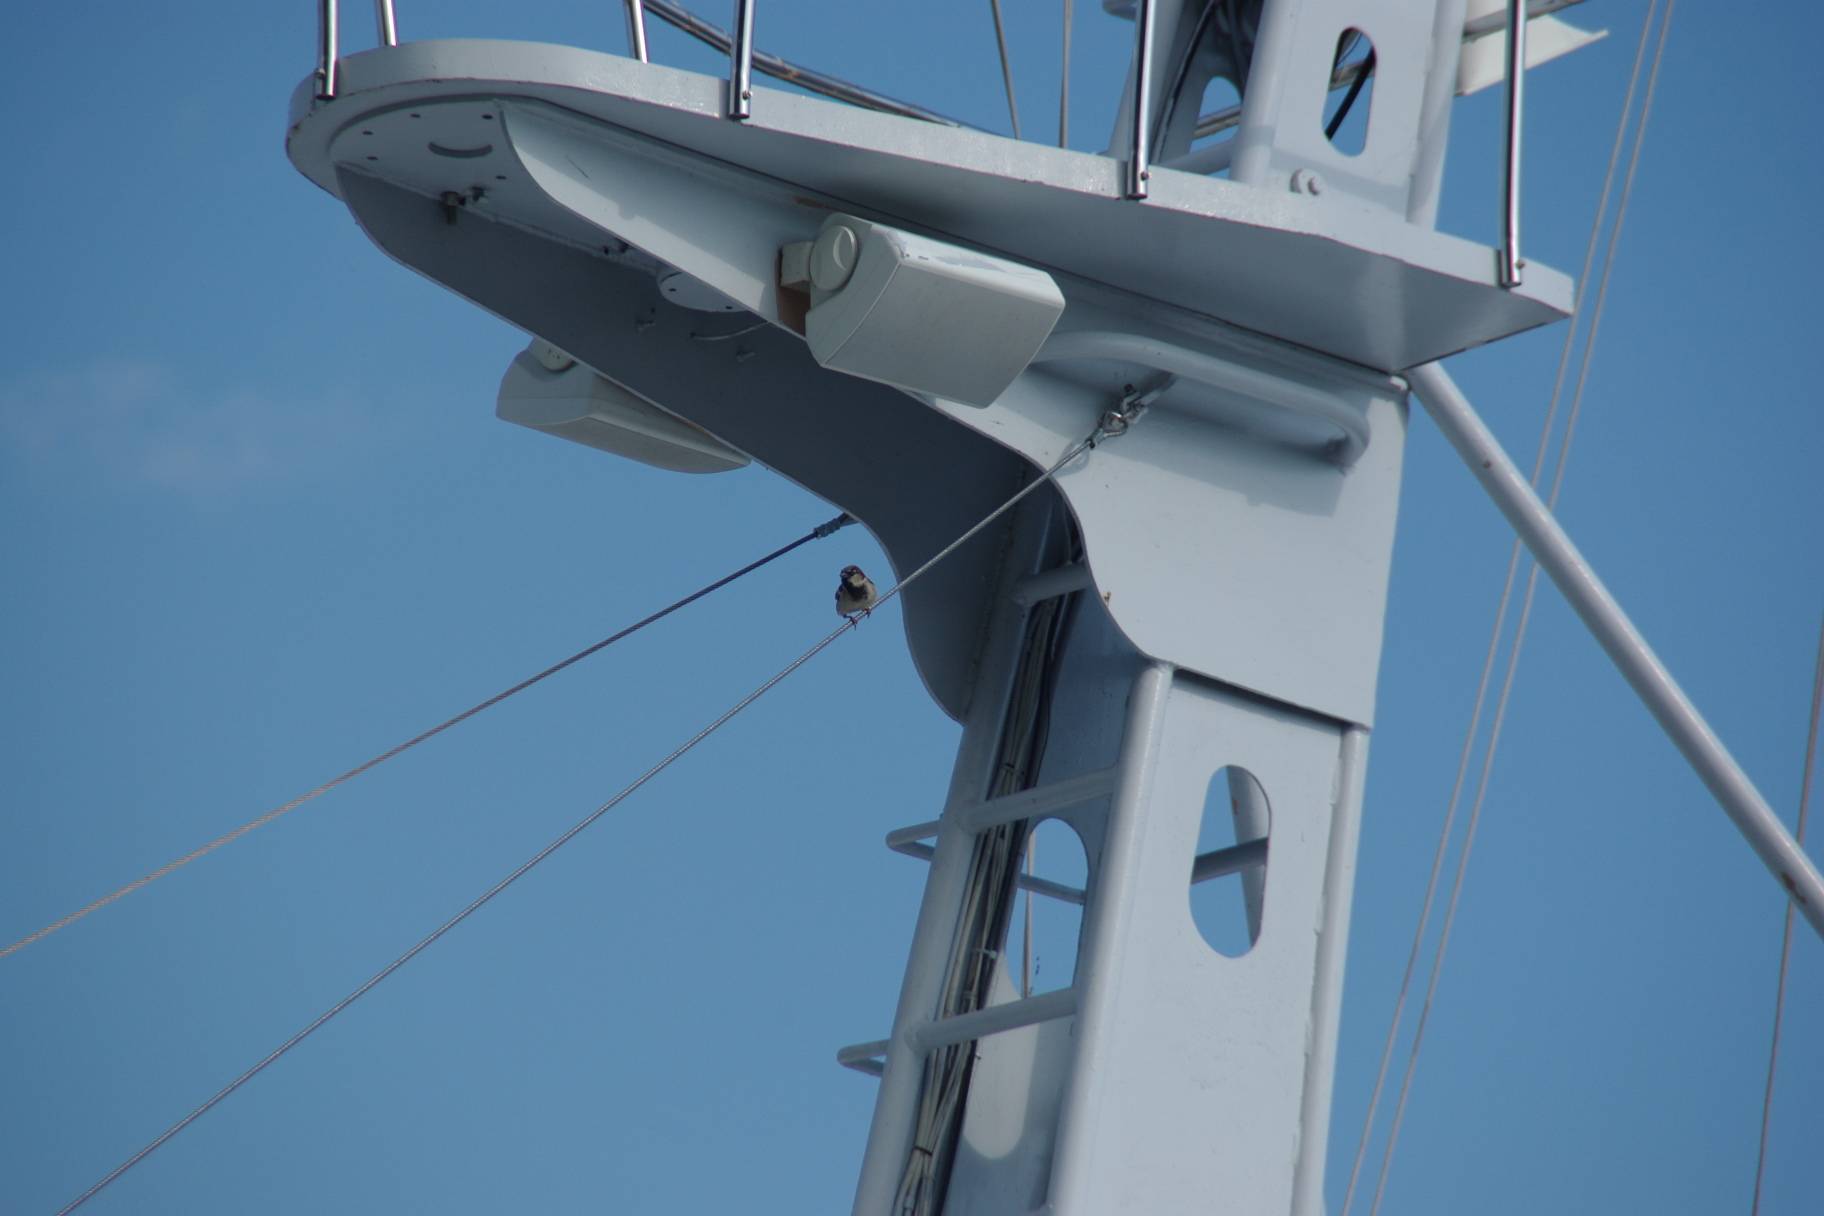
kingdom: Animalia
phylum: Chordata
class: Aves
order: Passeriformes
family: Passeridae
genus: Passer
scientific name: Passer domesticus
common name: House sparrow
